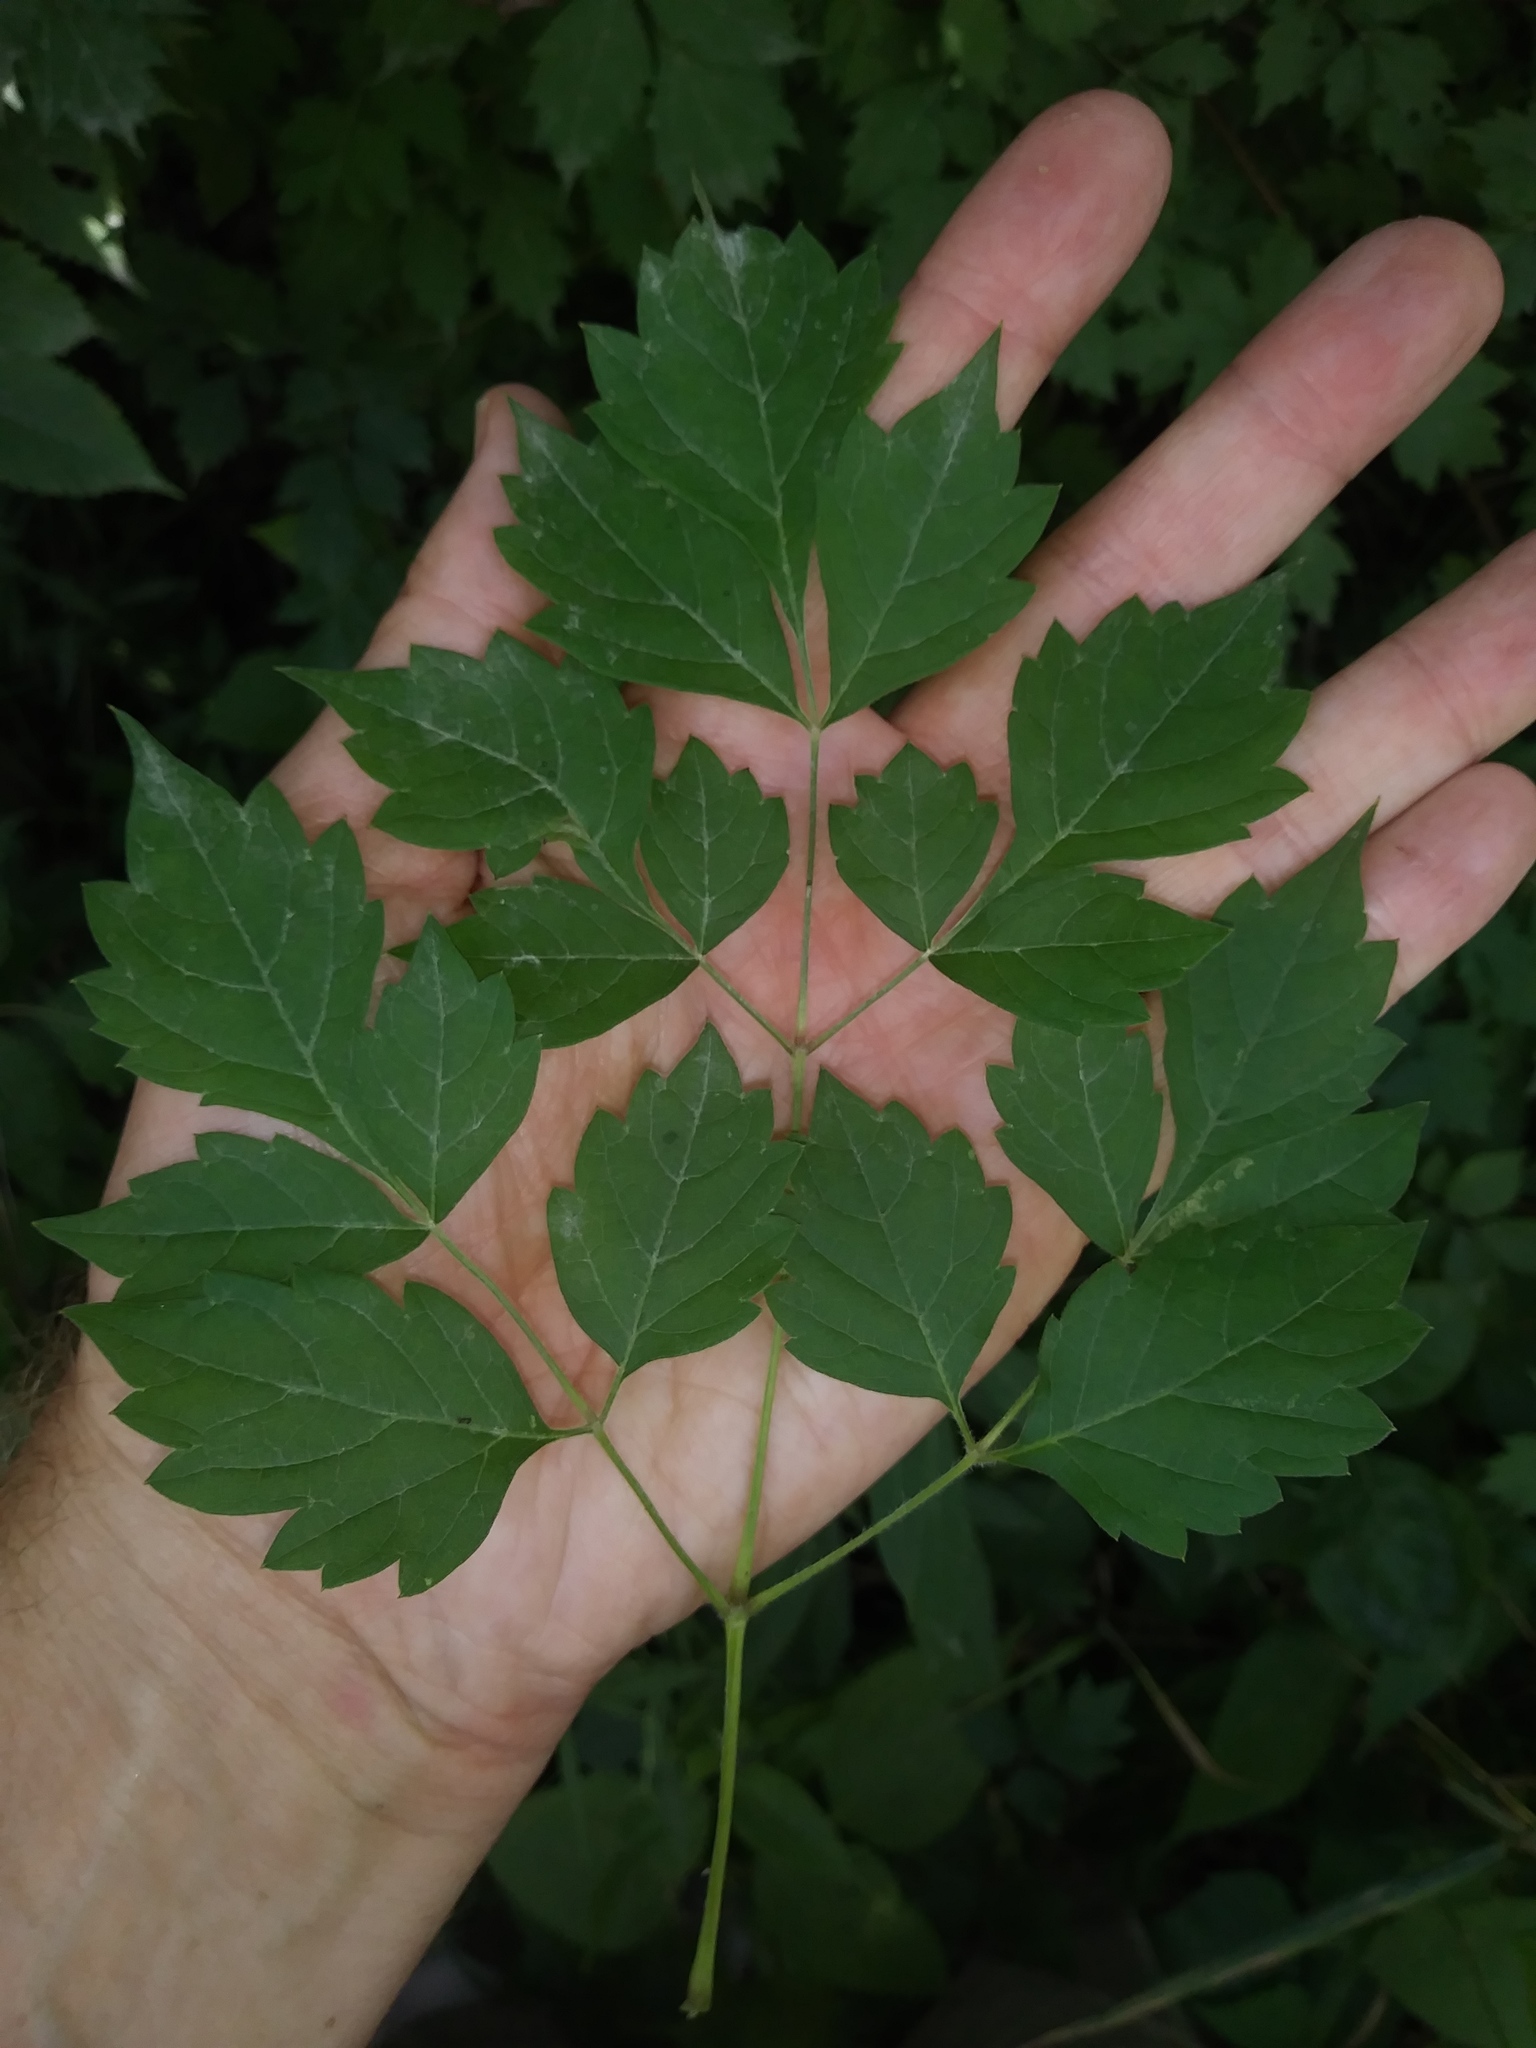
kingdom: Plantae
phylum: Tracheophyta
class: Magnoliopsida
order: Vitales
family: Vitaceae
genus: Nekemias
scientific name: Nekemias arborea
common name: Peppervine
